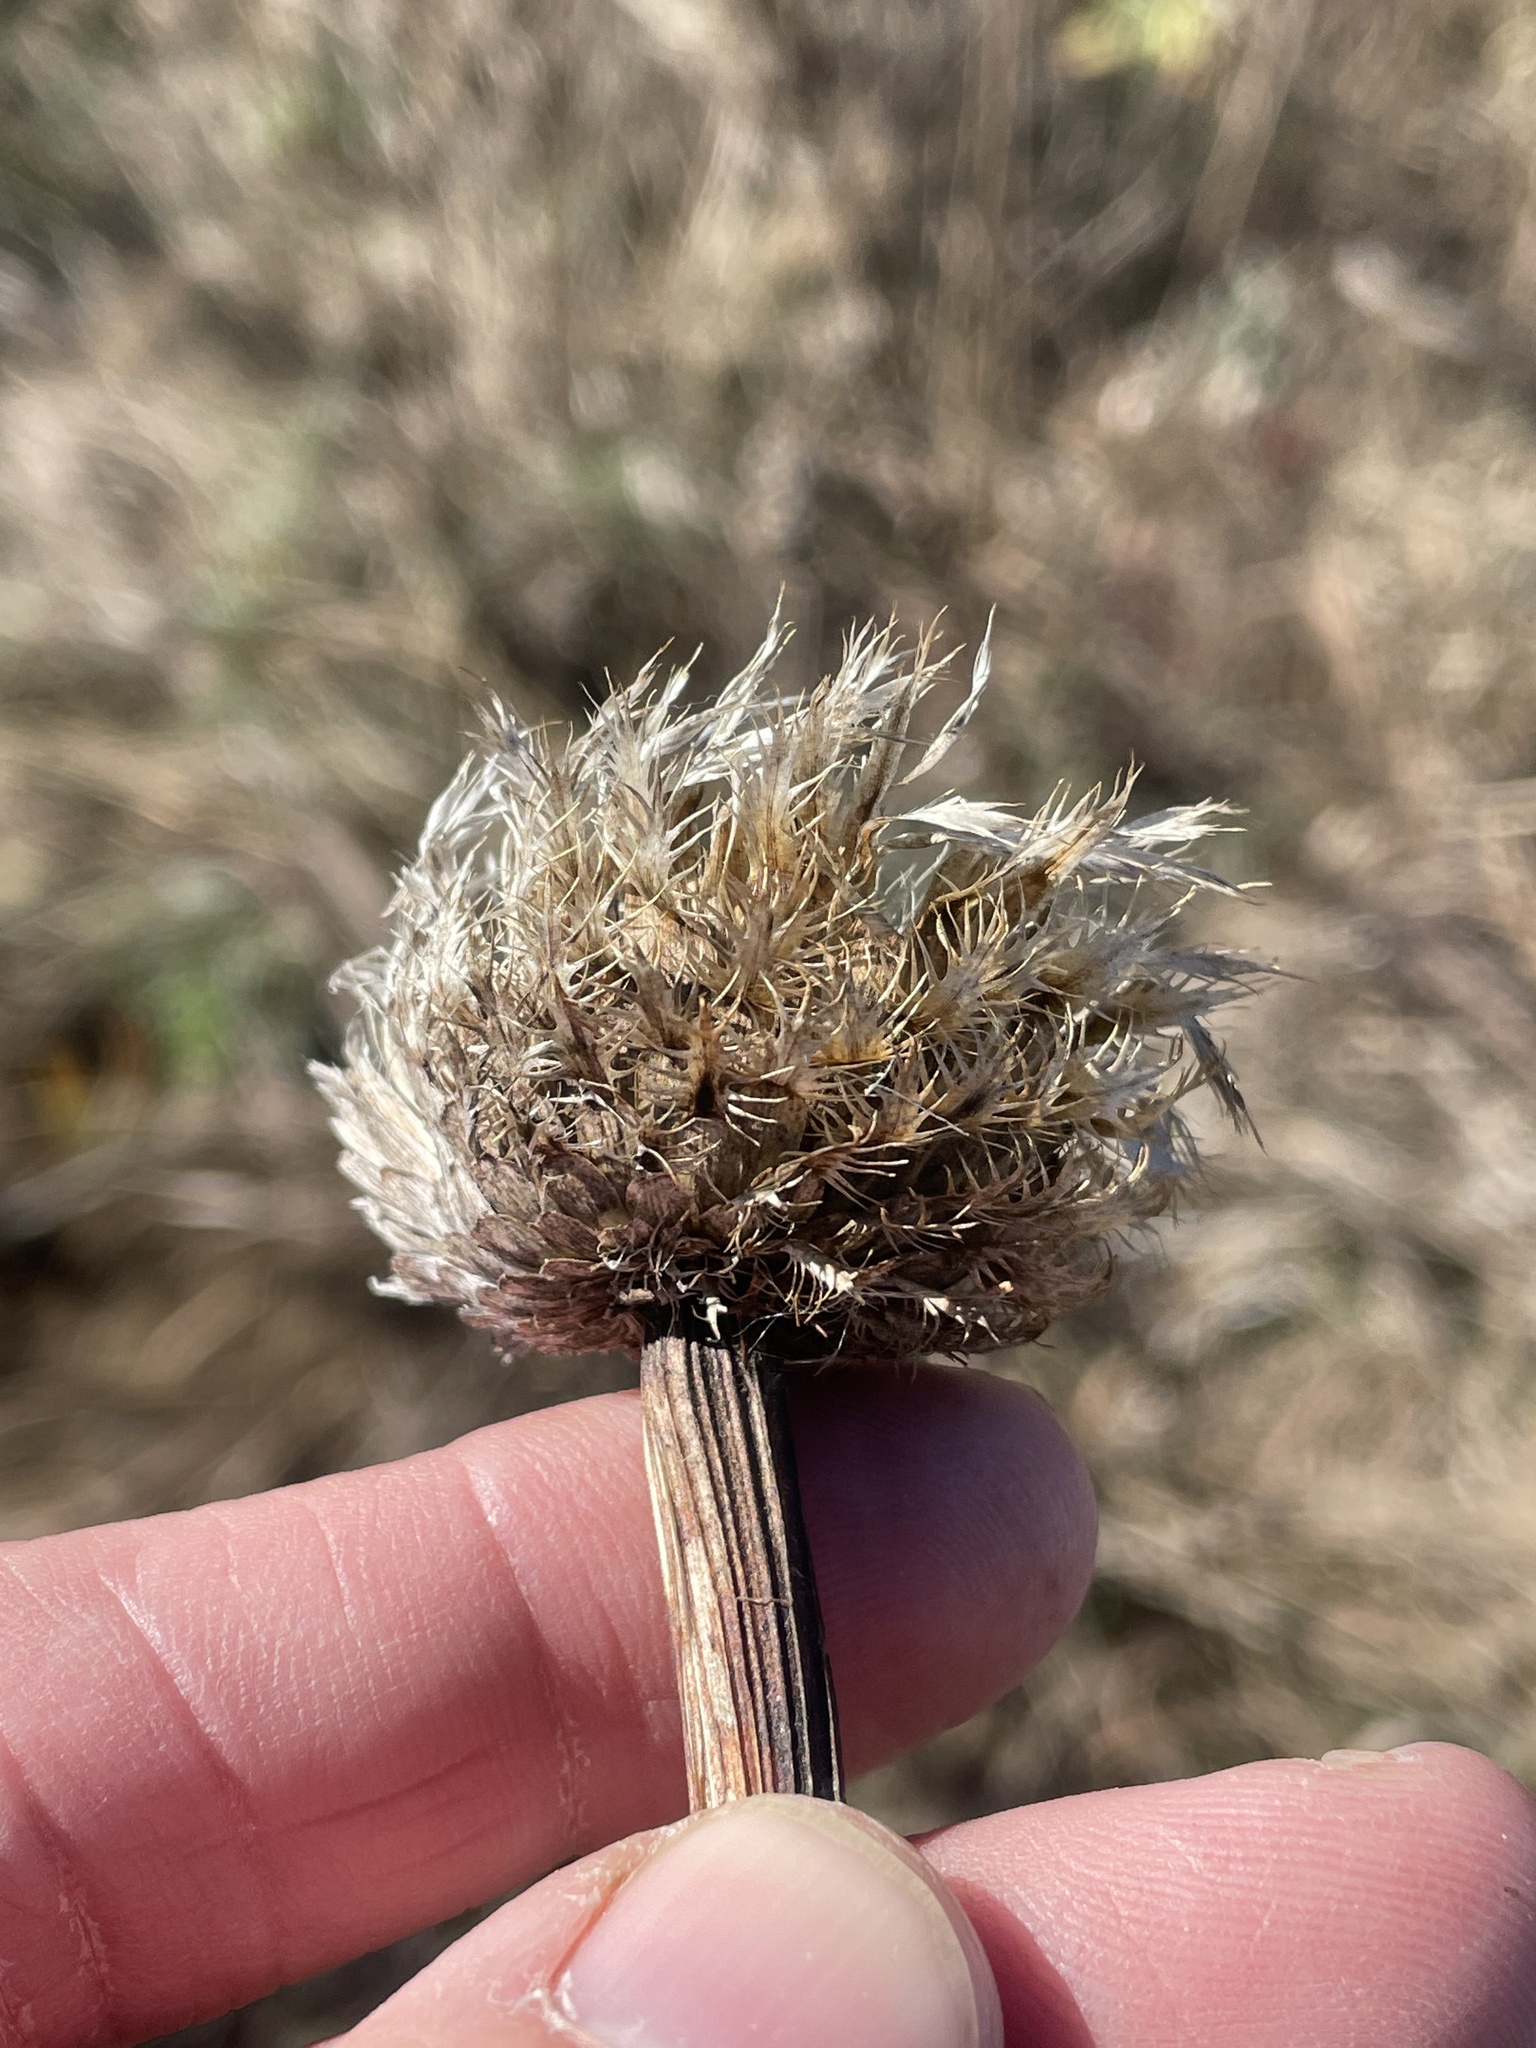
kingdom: Plantae
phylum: Tracheophyta
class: Magnoliopsida
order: Asterales
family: Asteraceae
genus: Plectocephalus
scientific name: Plectocephalus americanus
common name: American basket-flower
